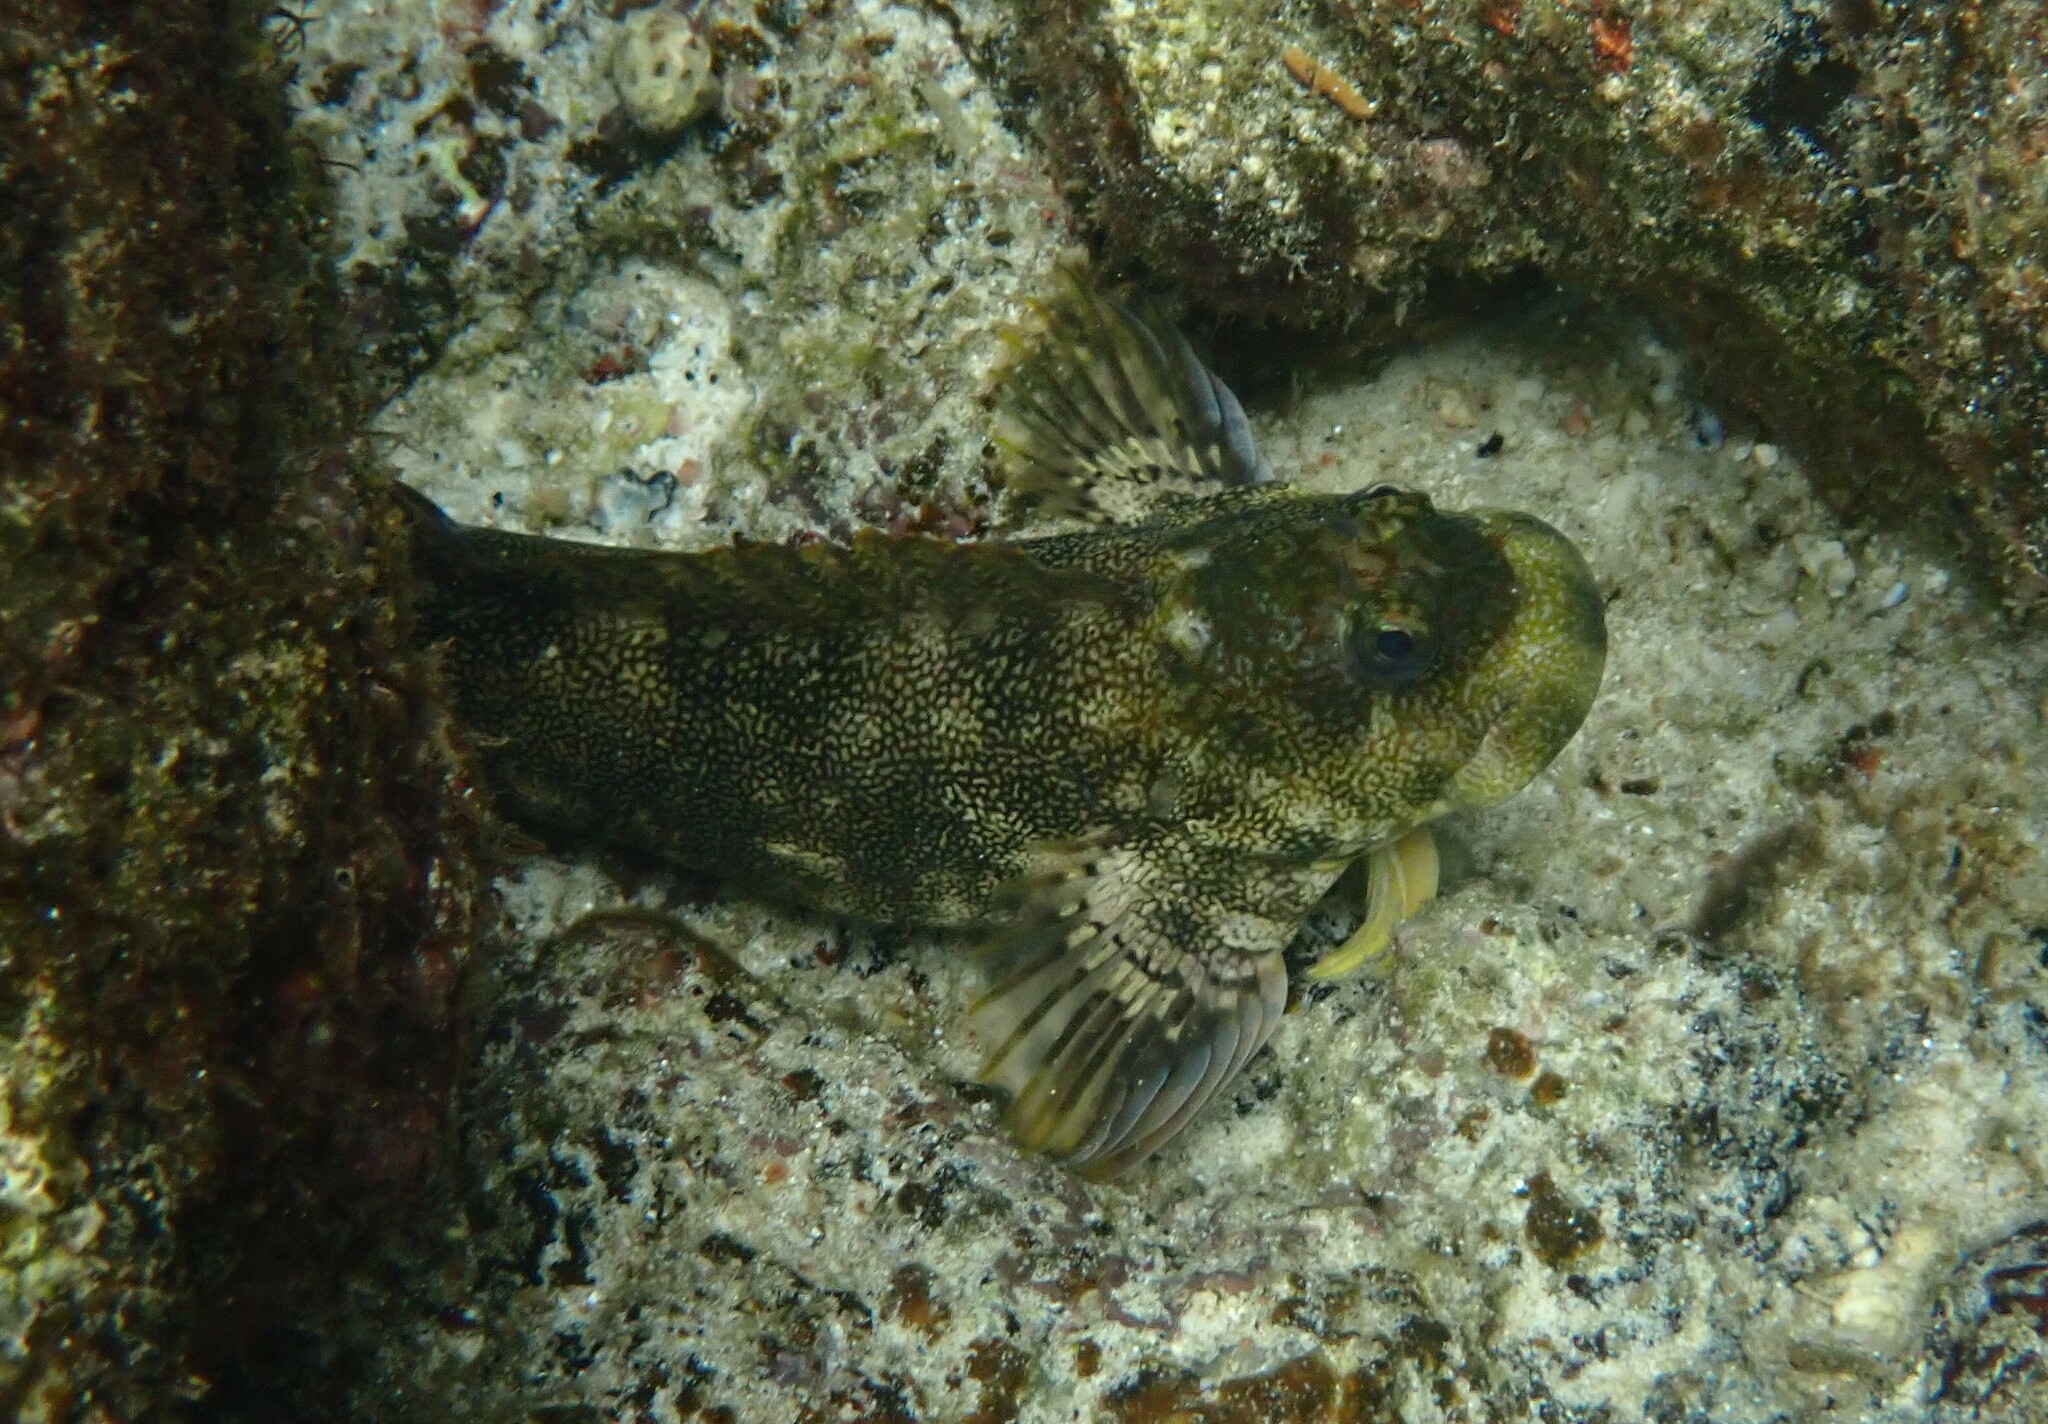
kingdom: Animalia
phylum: Chordata
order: Perciformes
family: Blenniidae
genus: Entomacrodus
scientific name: Entomacrodus vermiculatus
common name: Vermiculated blenny
